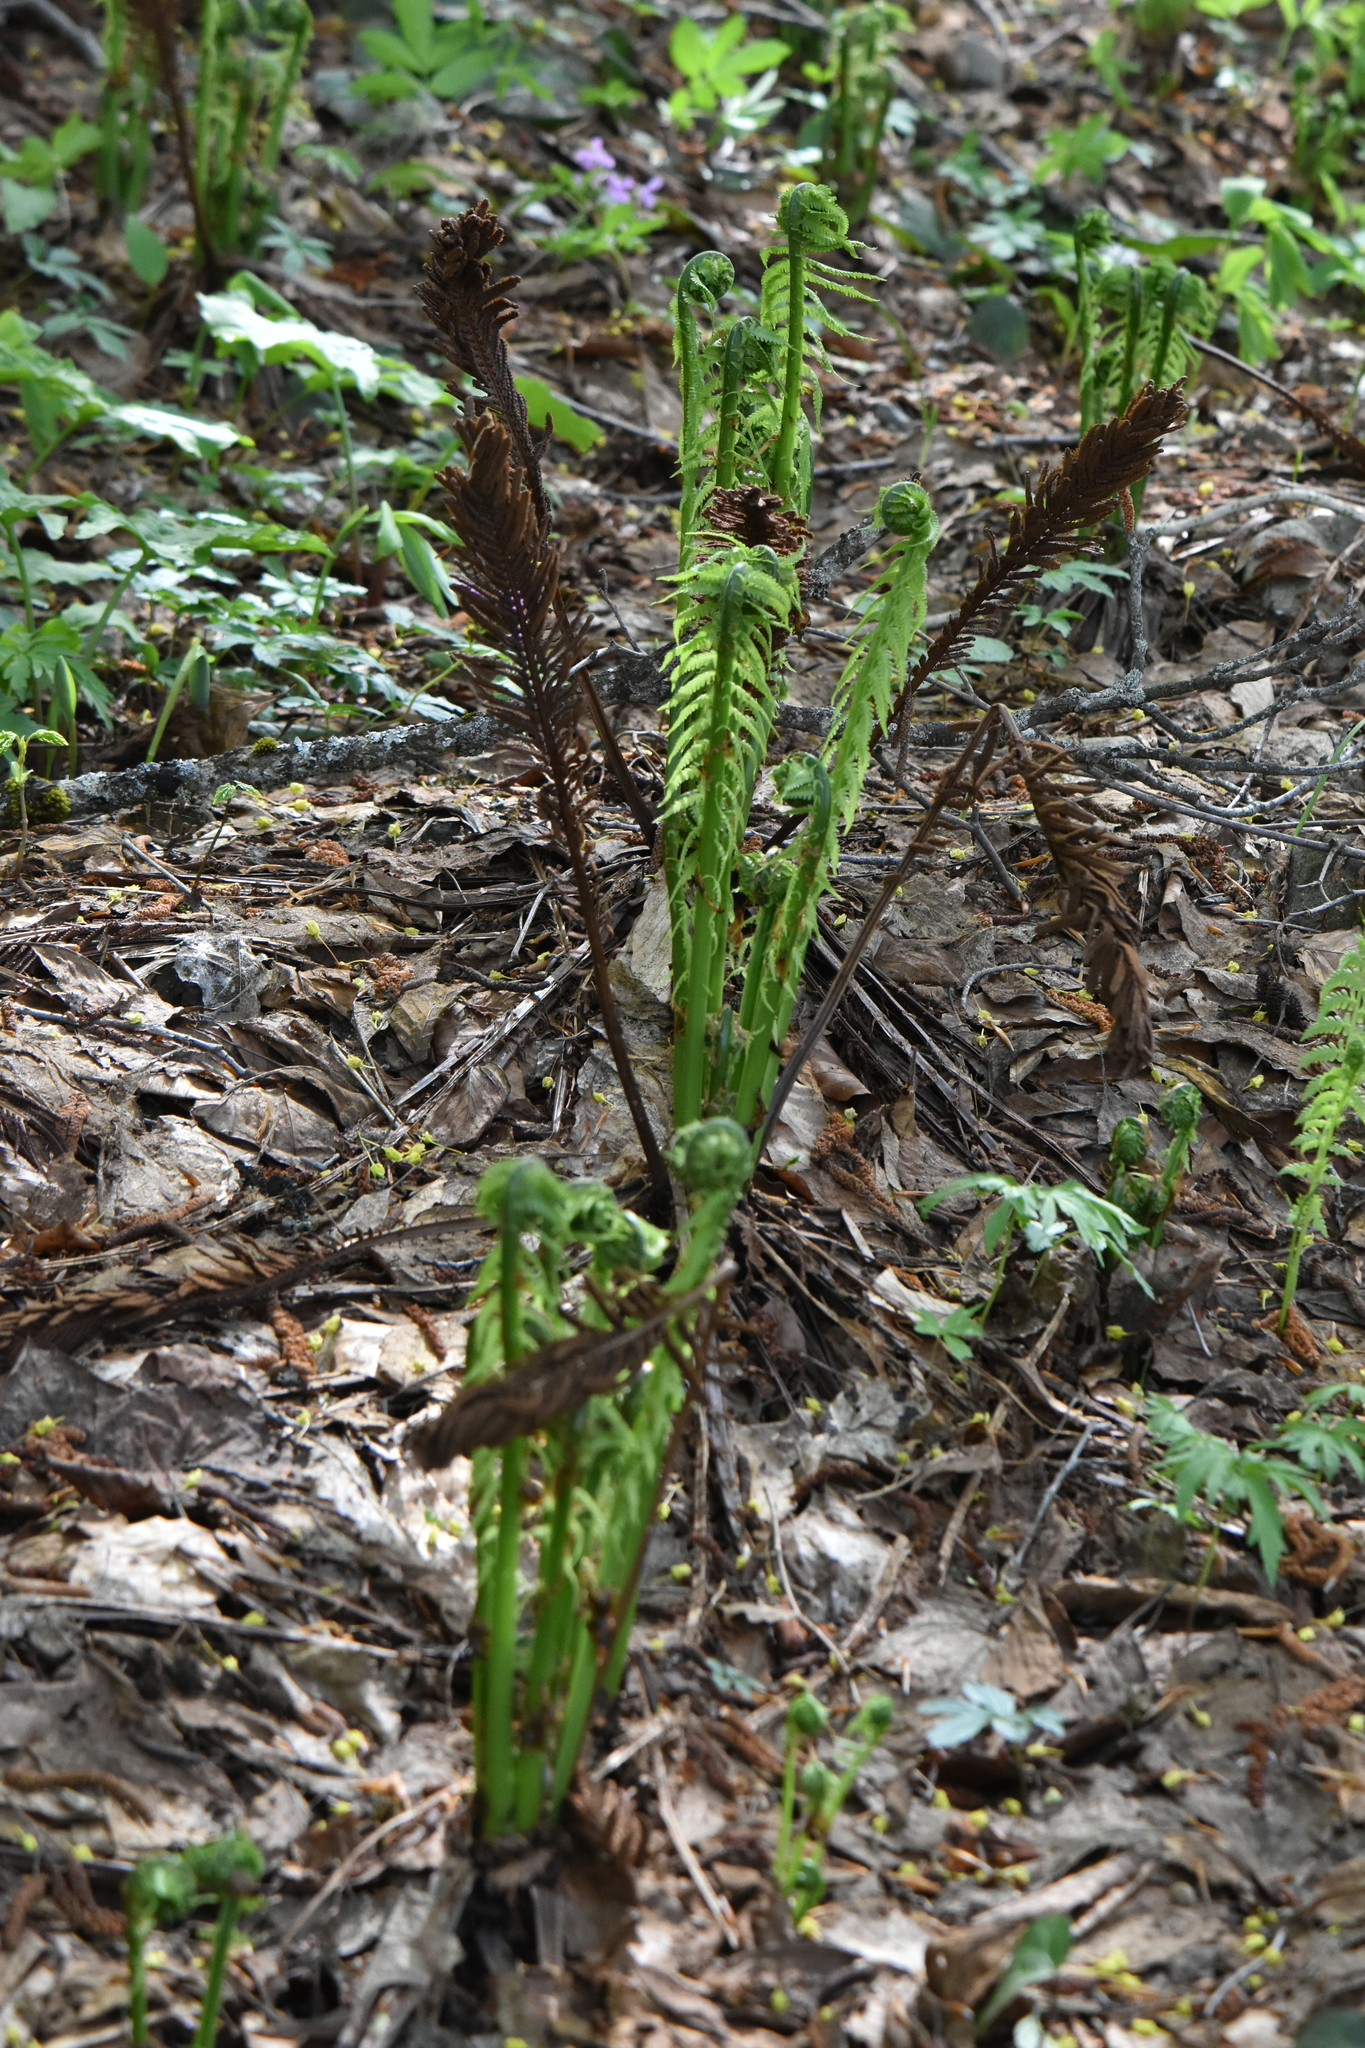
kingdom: Plantae
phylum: Tracheophyta
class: Polypodiopsida
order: Polypodiales
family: Onocleaceae
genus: Matteuccia
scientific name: Matteuccia struthiopteris
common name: Ostrich fern
